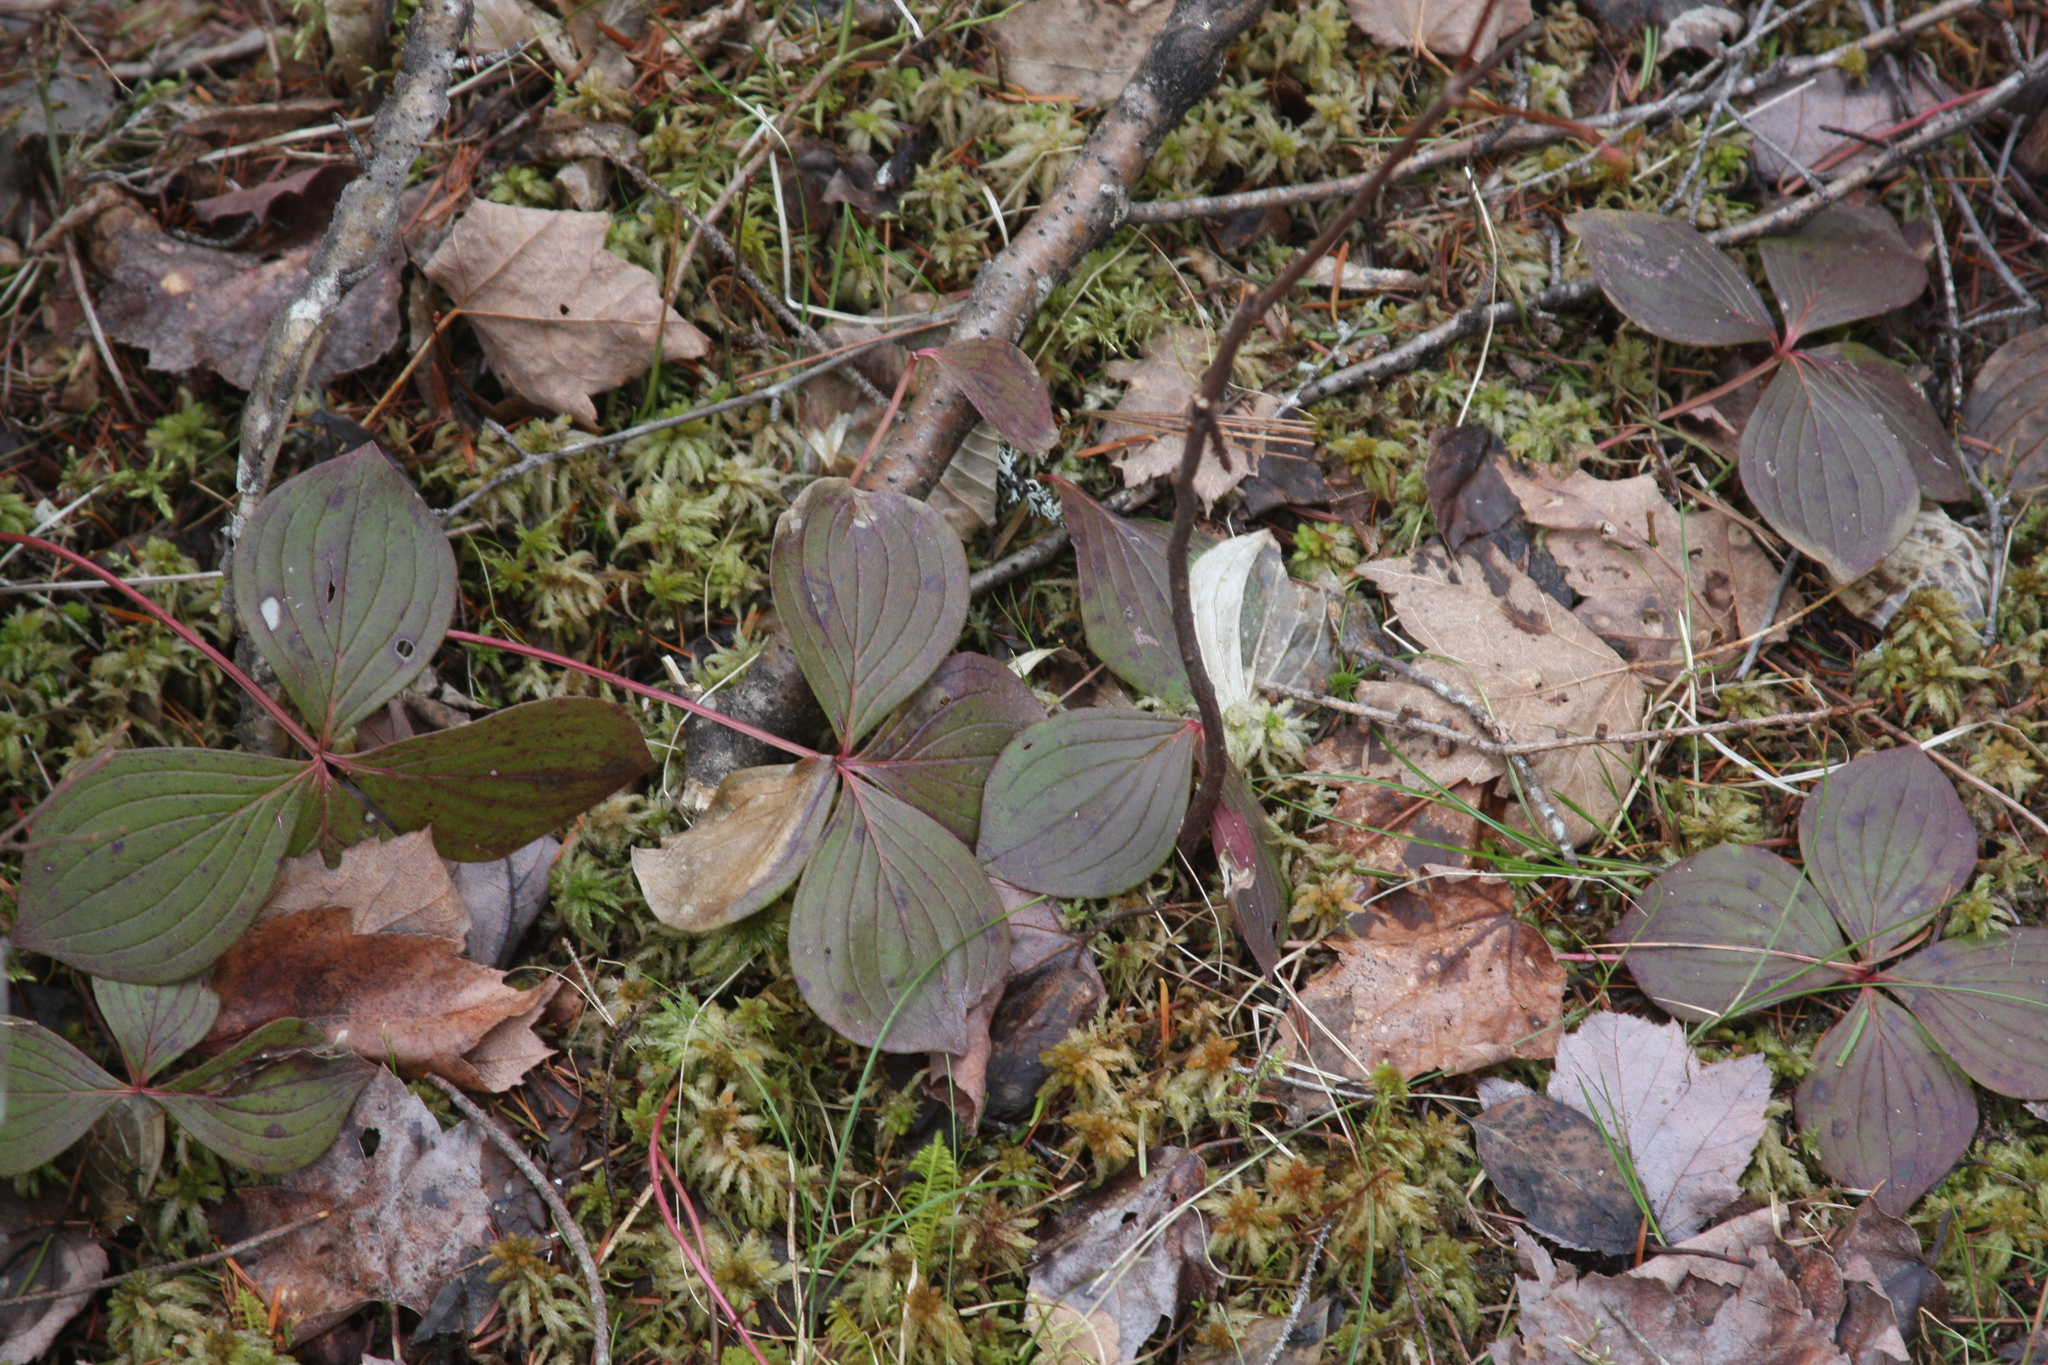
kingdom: Plantae
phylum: Tracheophyta
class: Magnoliopsida
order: Cornales
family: Cornaceae
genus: Cornus
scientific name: Cornus canadensis
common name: Creeping dogwood
